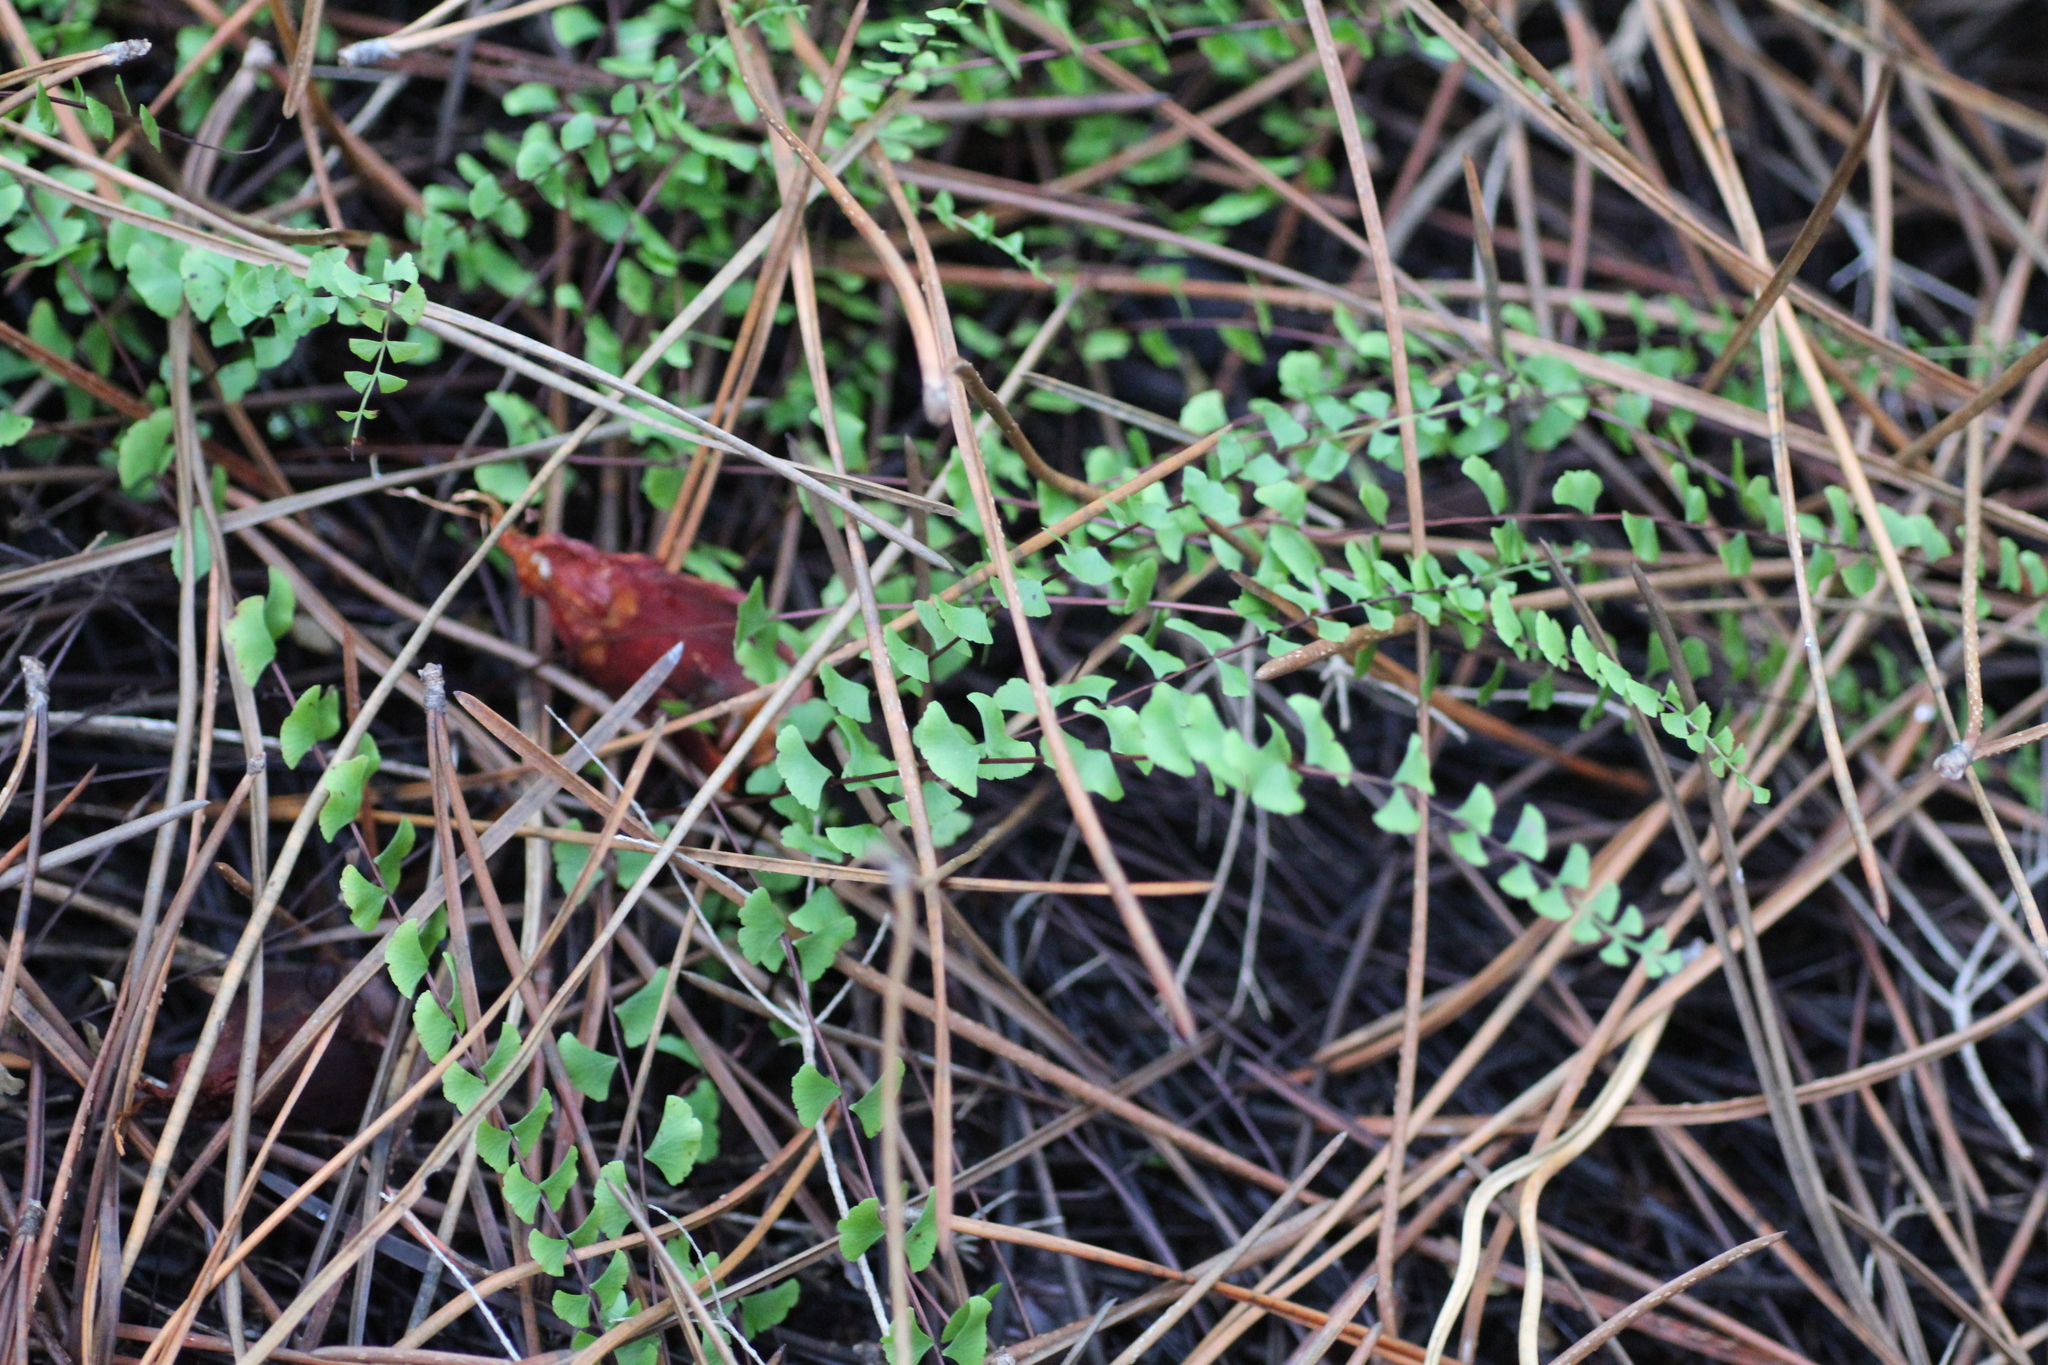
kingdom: Plantae
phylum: Tracheophyta
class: Polypodiopsida
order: Polypodiales
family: Lindsaeaceae
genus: Lindsaea
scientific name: Lindsaea linearis
